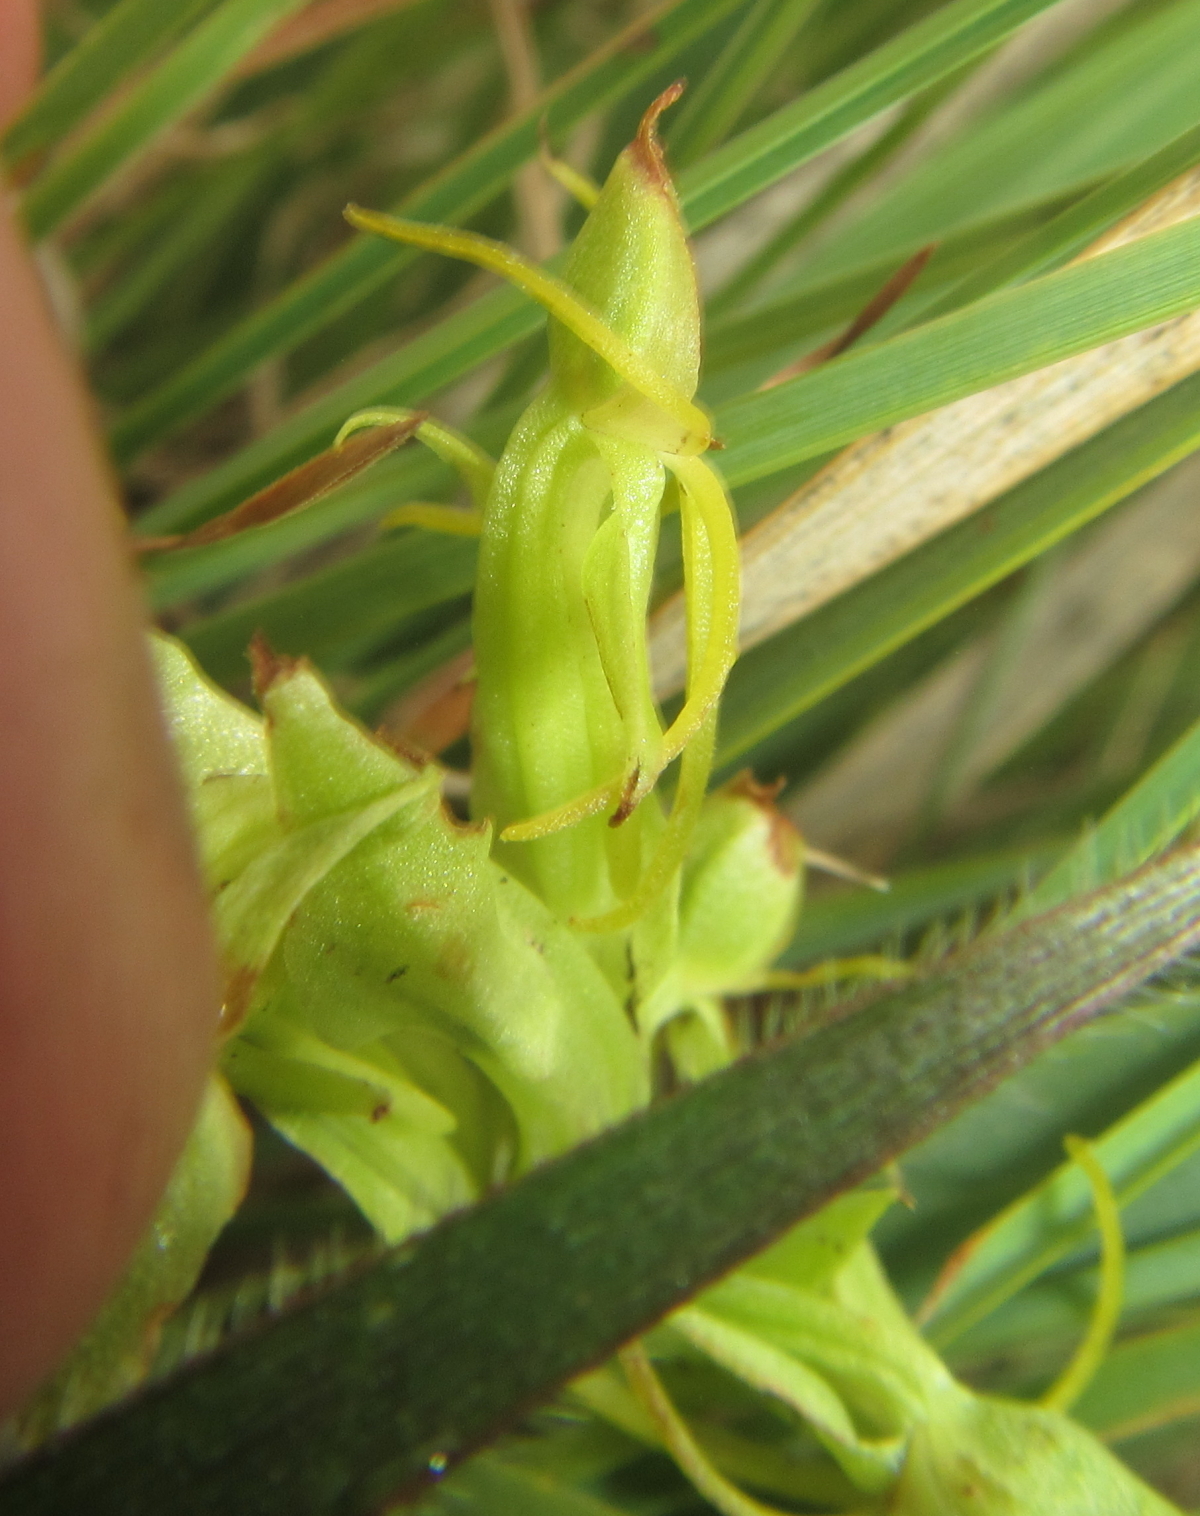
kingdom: Plantae
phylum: Tracheophyta
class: Liliopsida
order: Asparagales
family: Orchidaceae
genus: Habenaria
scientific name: Habenaria lithophila
